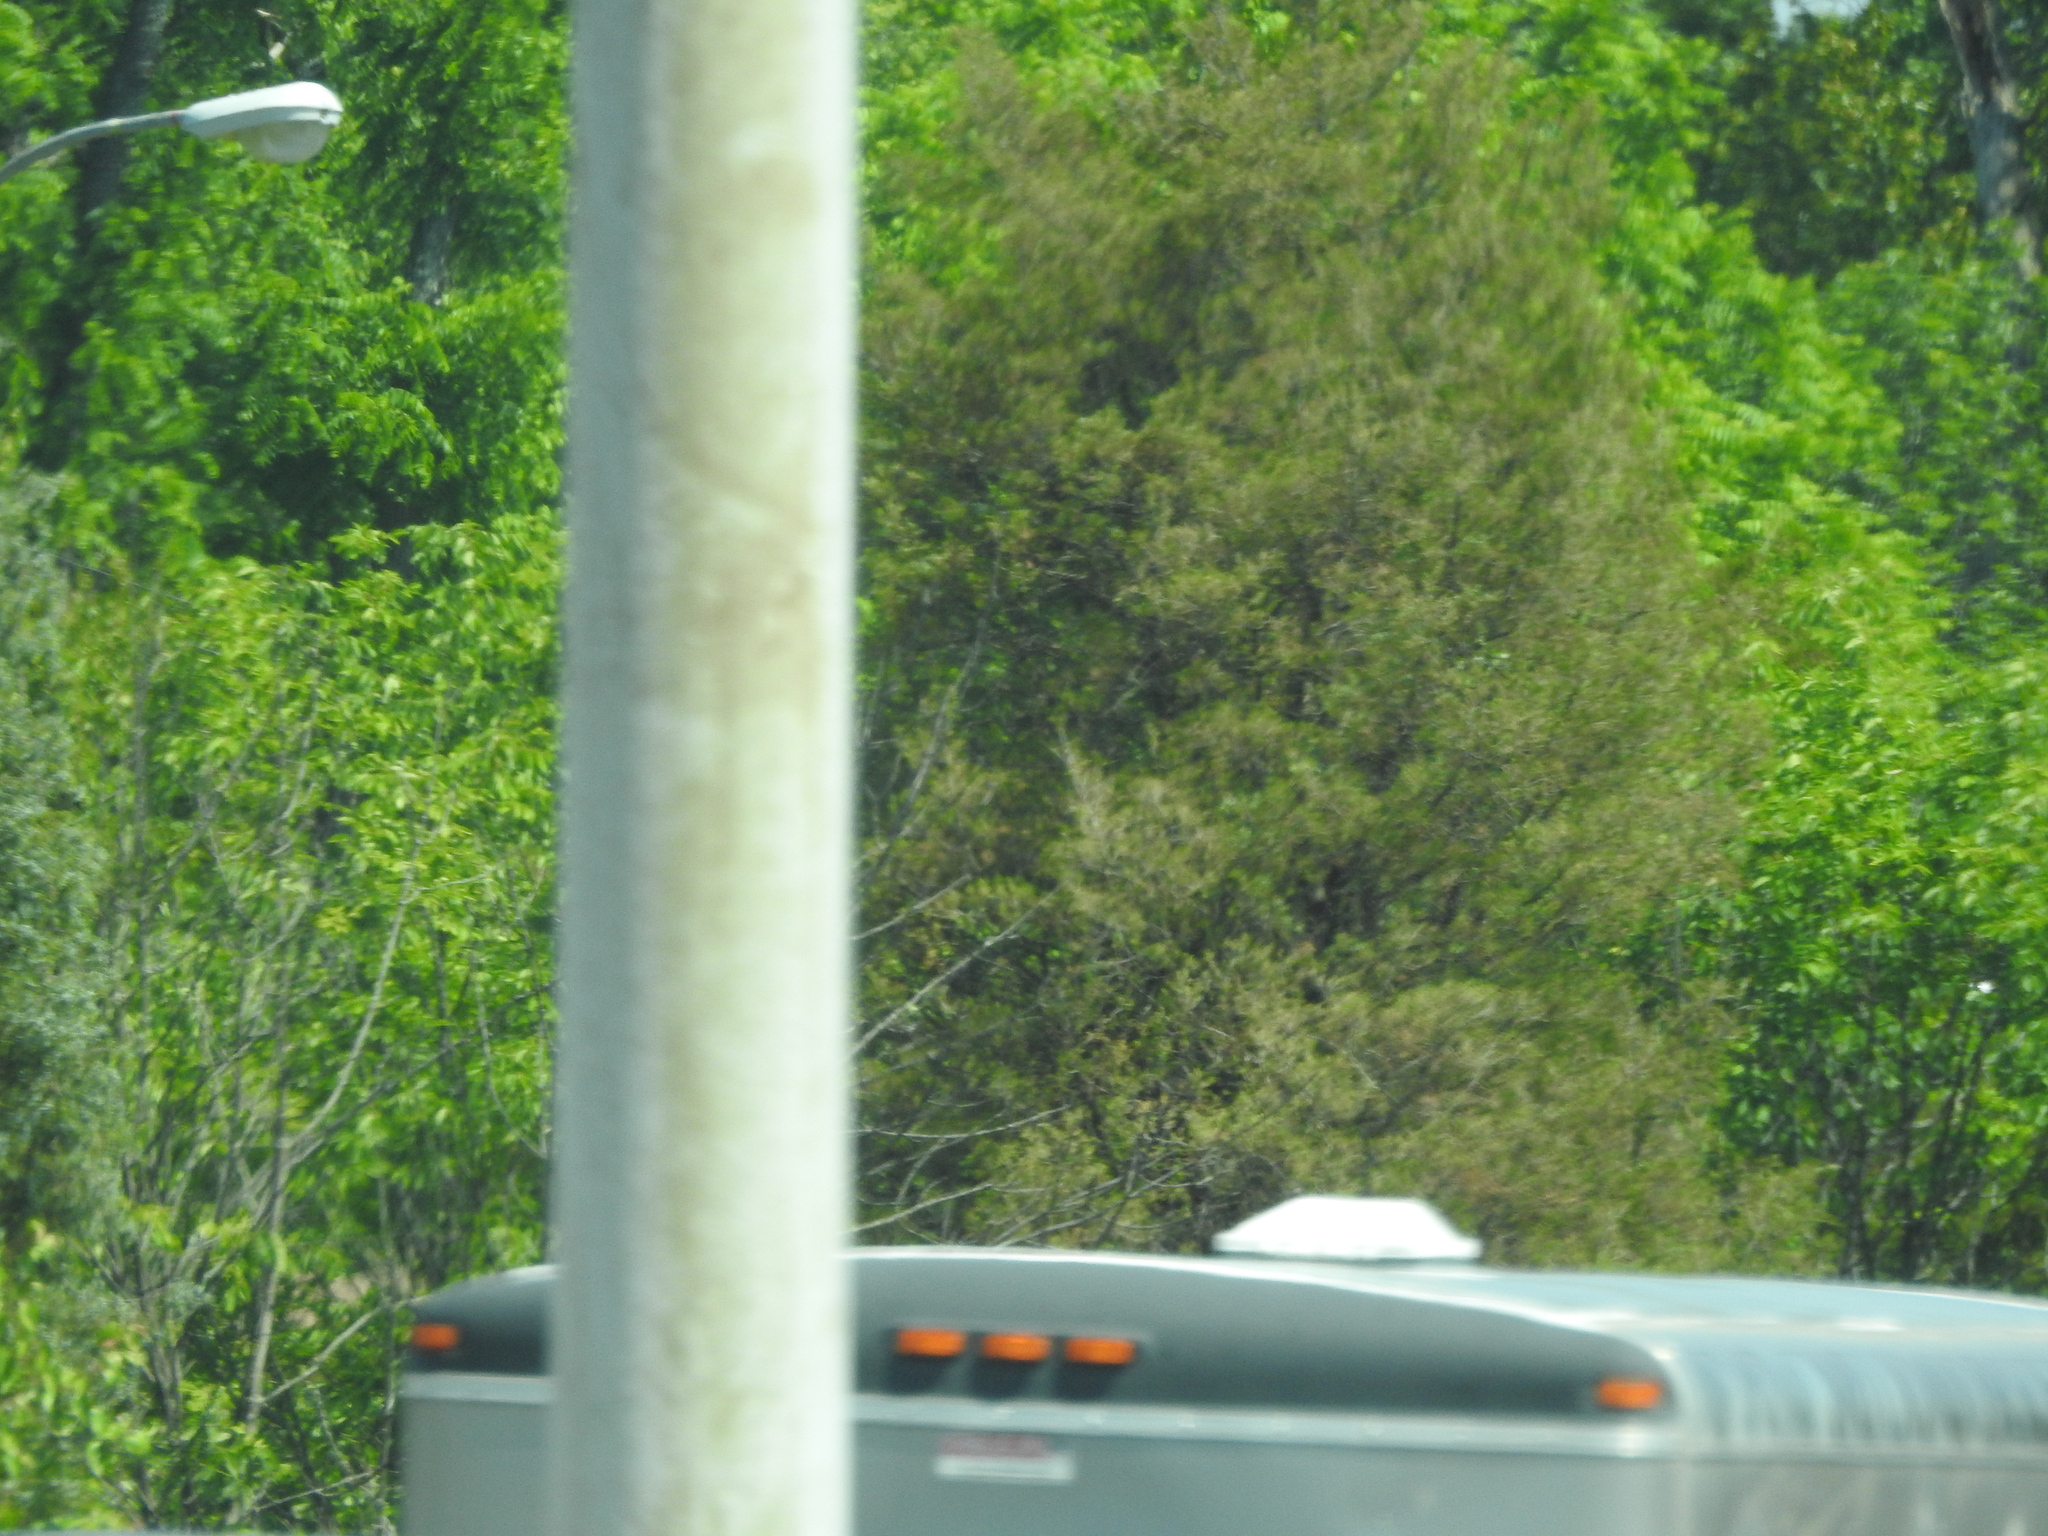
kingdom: Plantae
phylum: Tracheophyta
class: Pinopsida
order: Pinales
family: Cupressaceae
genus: Juniperus
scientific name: Juniperus virginiana
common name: Red juniper
